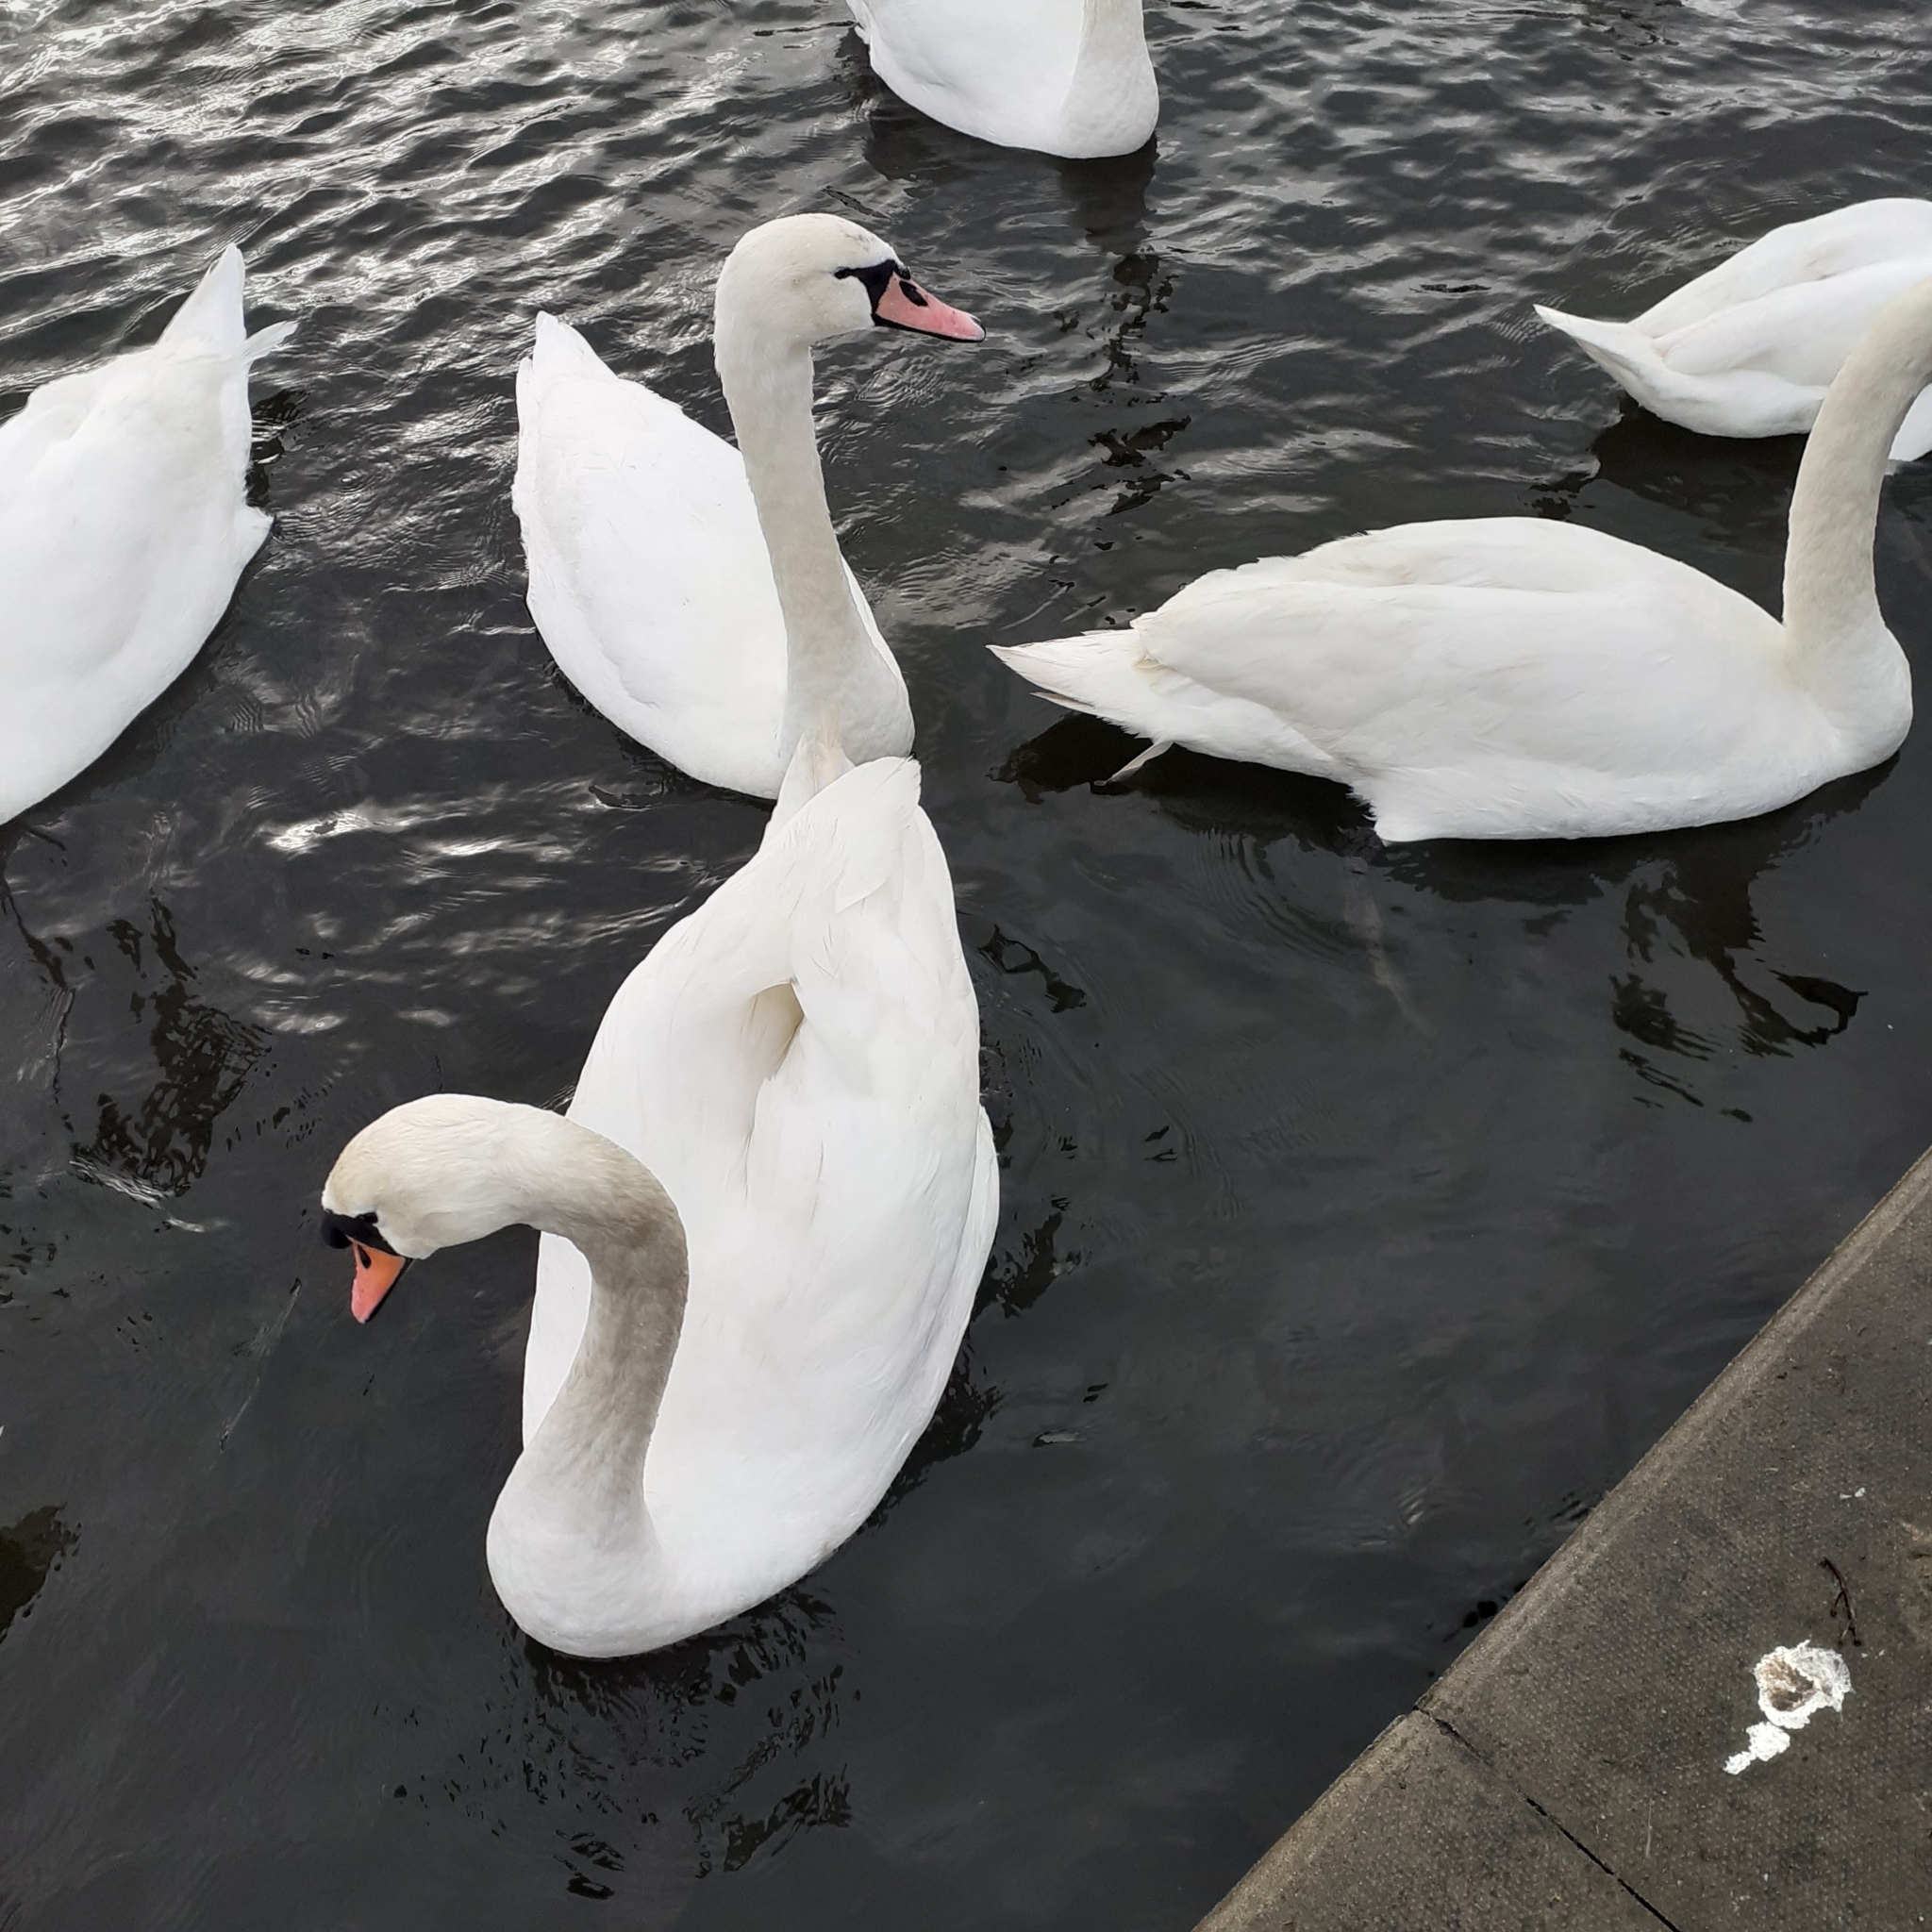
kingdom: Animalia
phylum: Chordata
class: Aves
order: Anseriformes
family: Anatidae
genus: Cygnus
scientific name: Cygnus olor
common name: Mute swan
